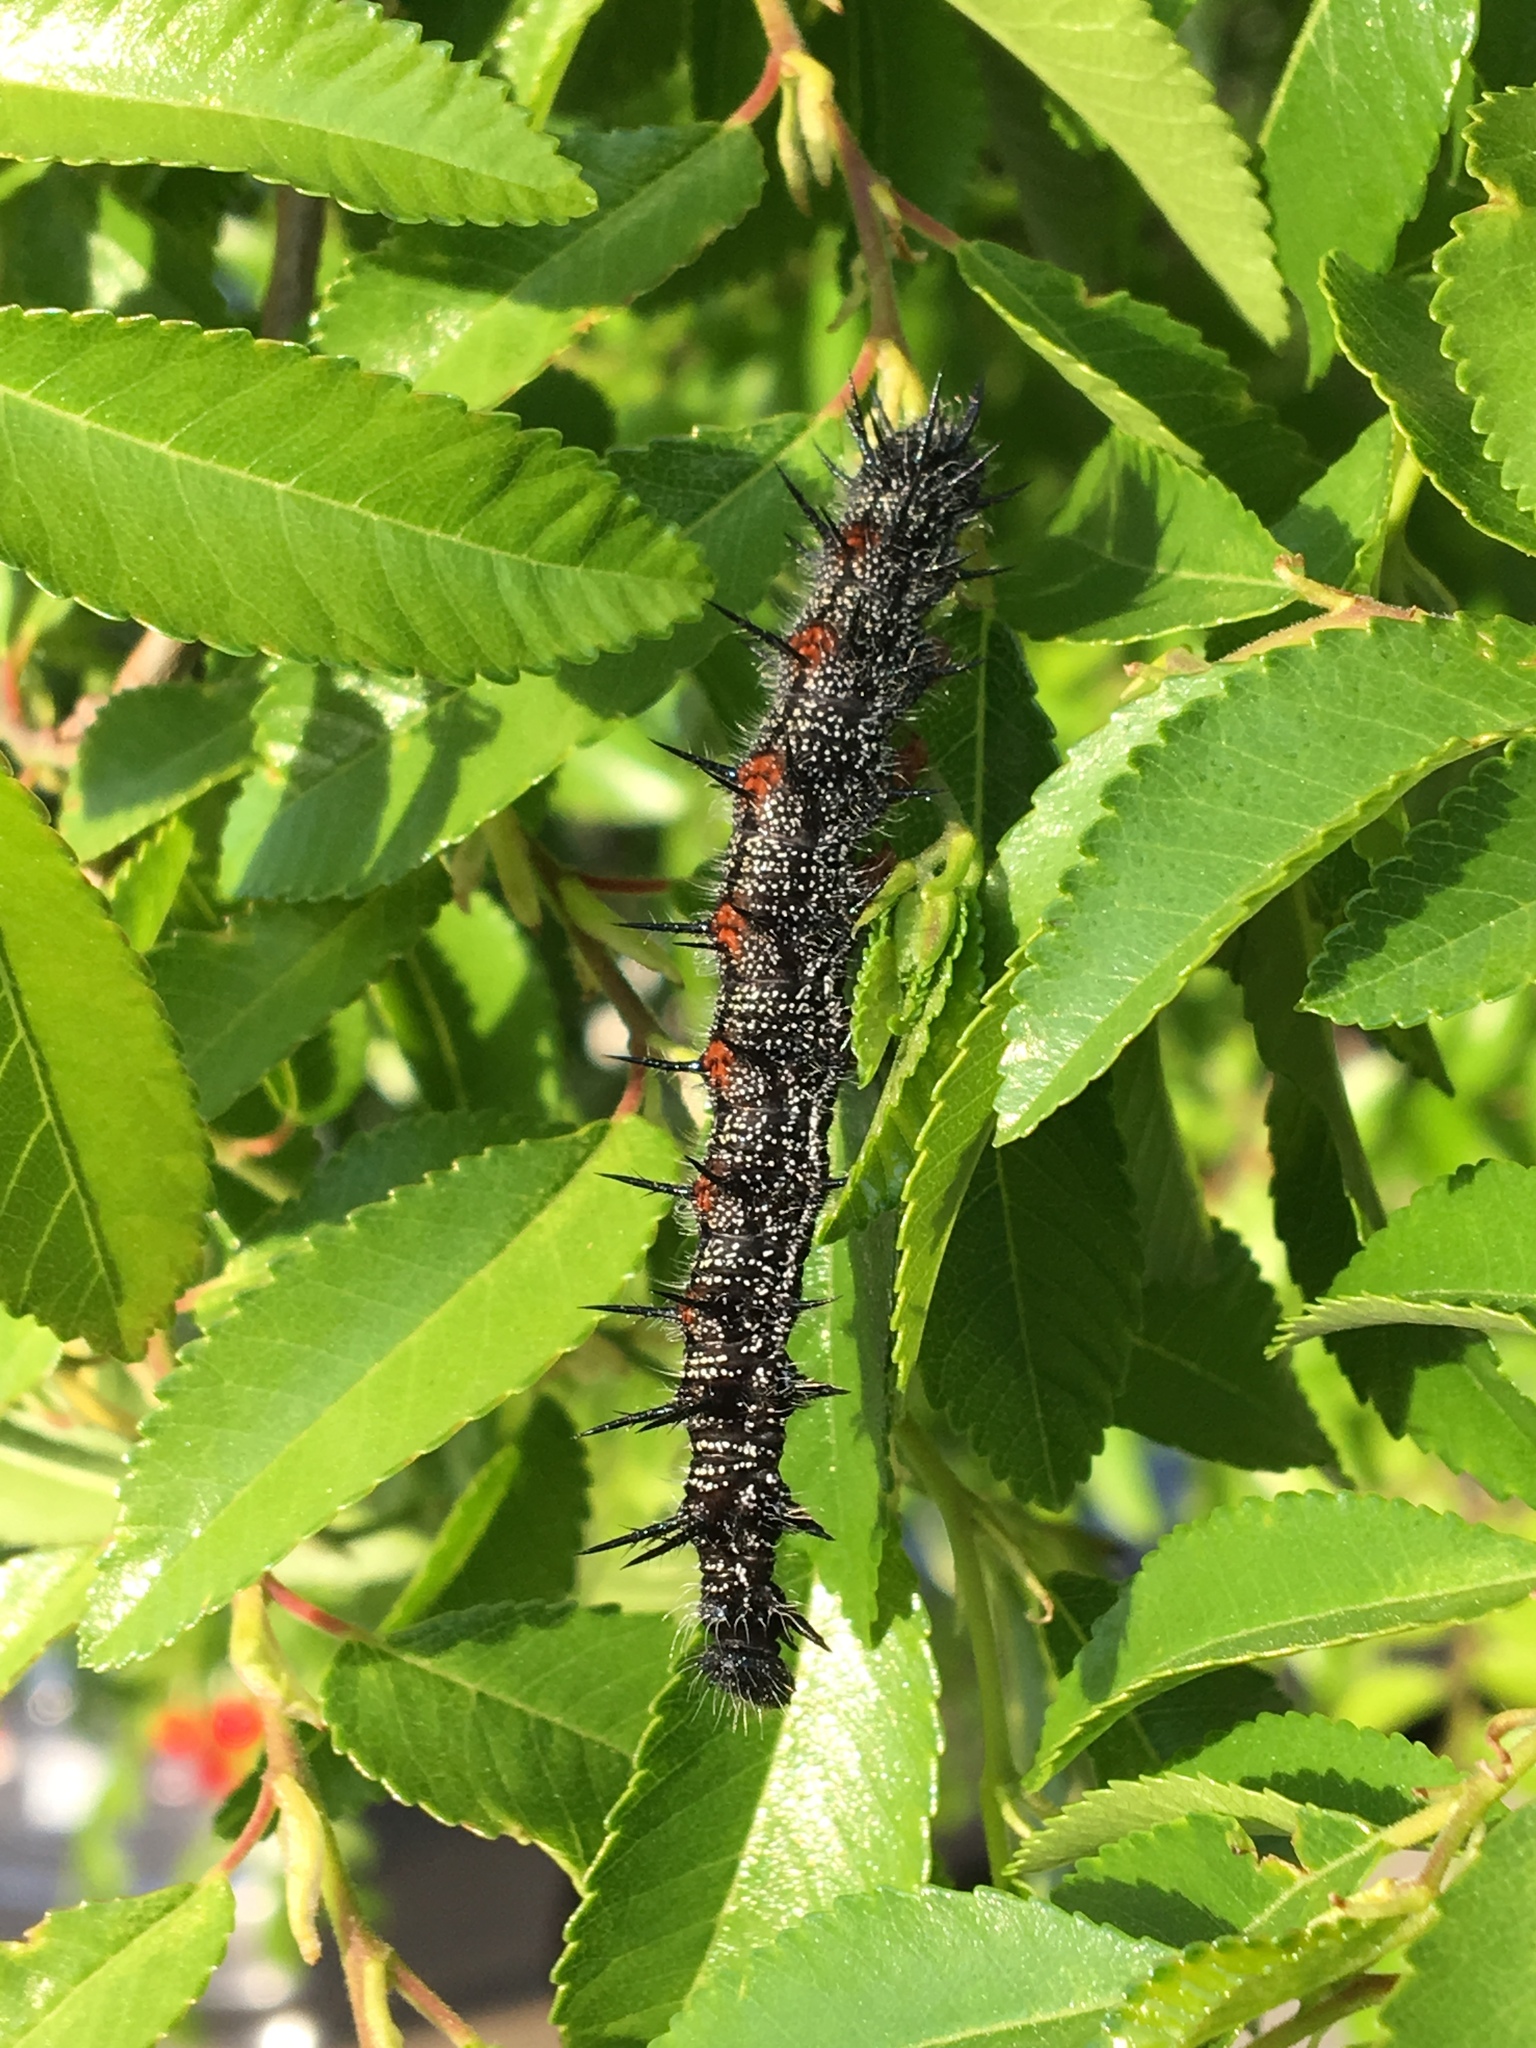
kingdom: Animalia
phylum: Arthropoda
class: Insecta
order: Lepidoptera
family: Nymphalidae
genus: Nymphalis
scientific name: Nymphalis antiopa
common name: Camberwell beauty
